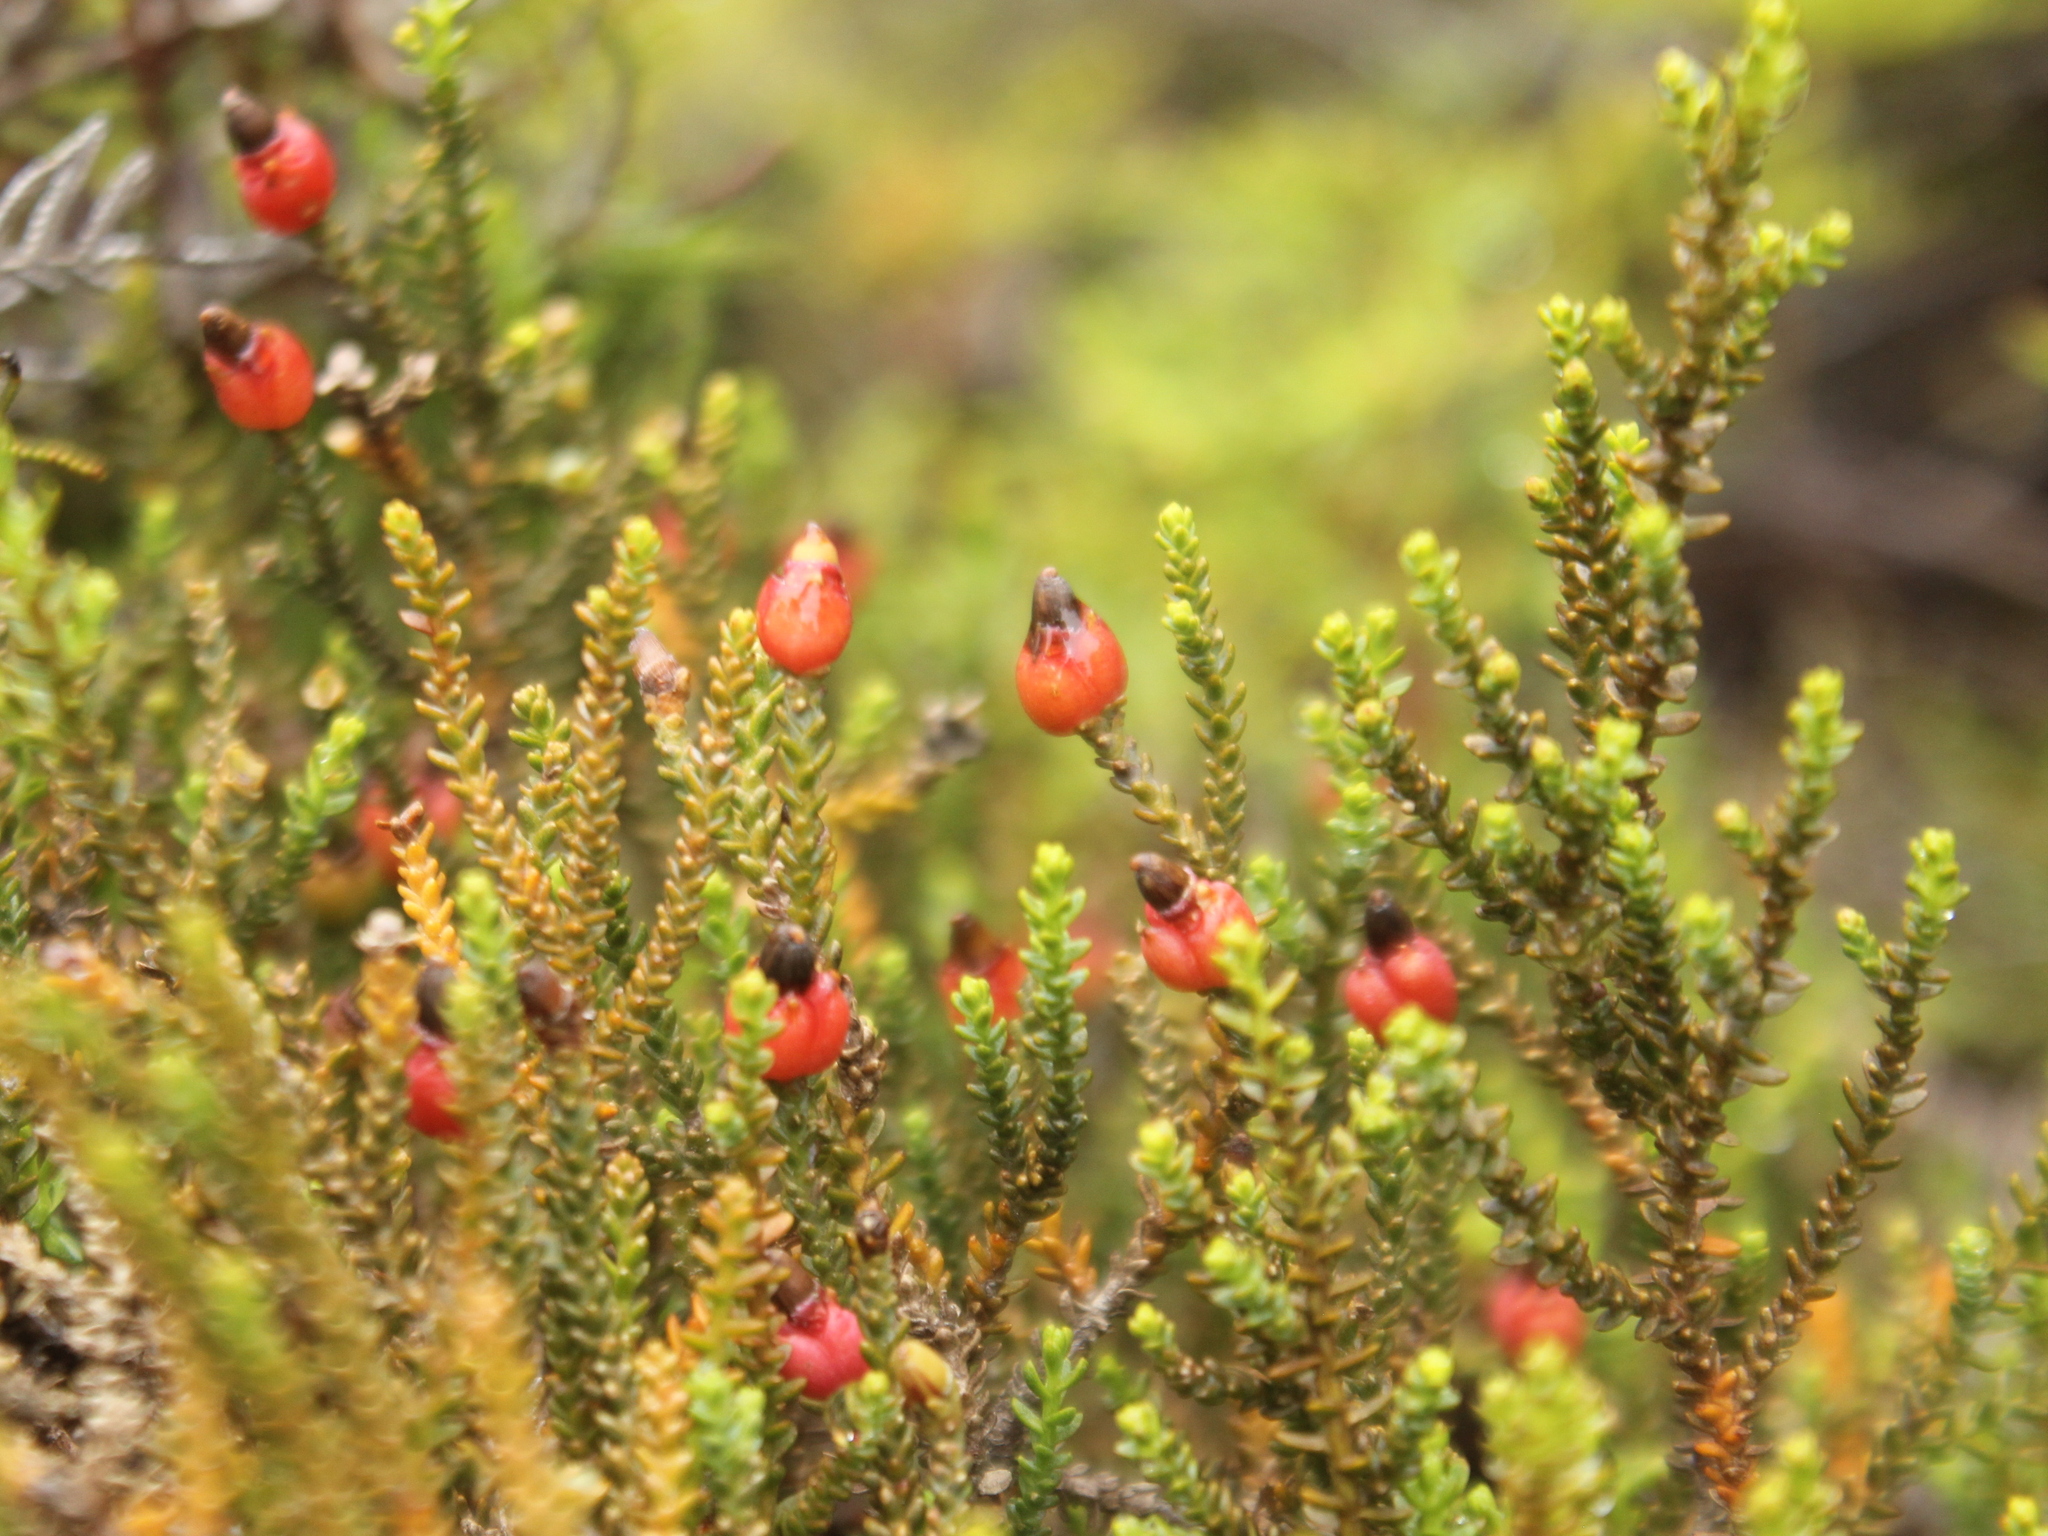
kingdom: Plantae
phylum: Tracheophyta
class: Pinopsida
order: Pinales
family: Podocarpaceae
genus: Lepidothamnus
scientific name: Lepidothamnus laxifolius
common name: Pygmy pine
